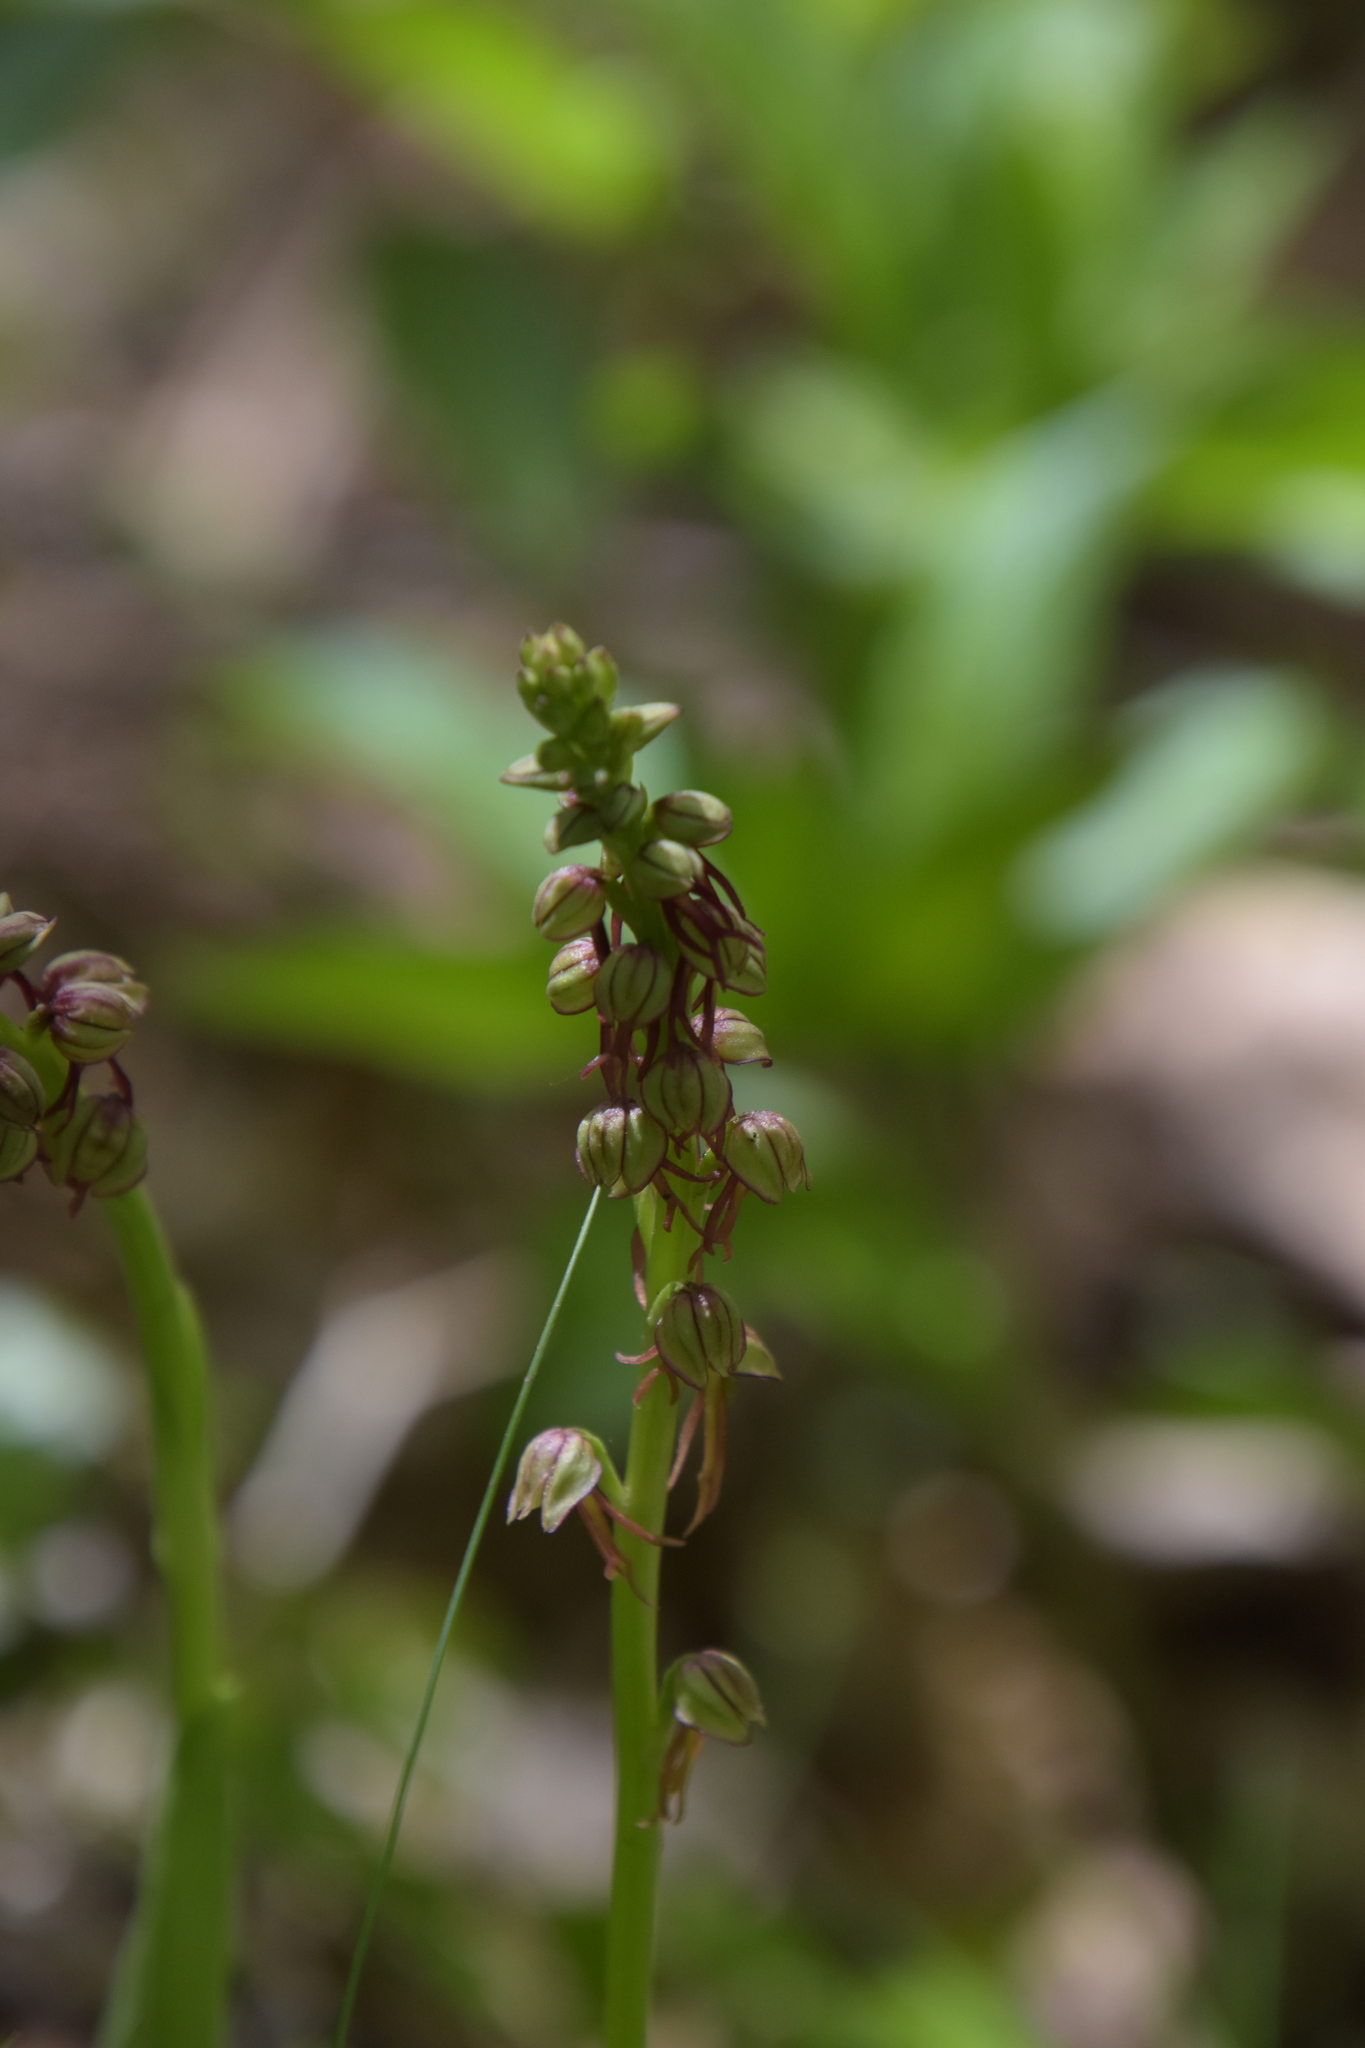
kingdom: Plantae
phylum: Tracheophyta
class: Liliopsida
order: Asparagales
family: Orchidaceae
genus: Orchis
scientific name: Orchis anthropophora
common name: Man orchid
